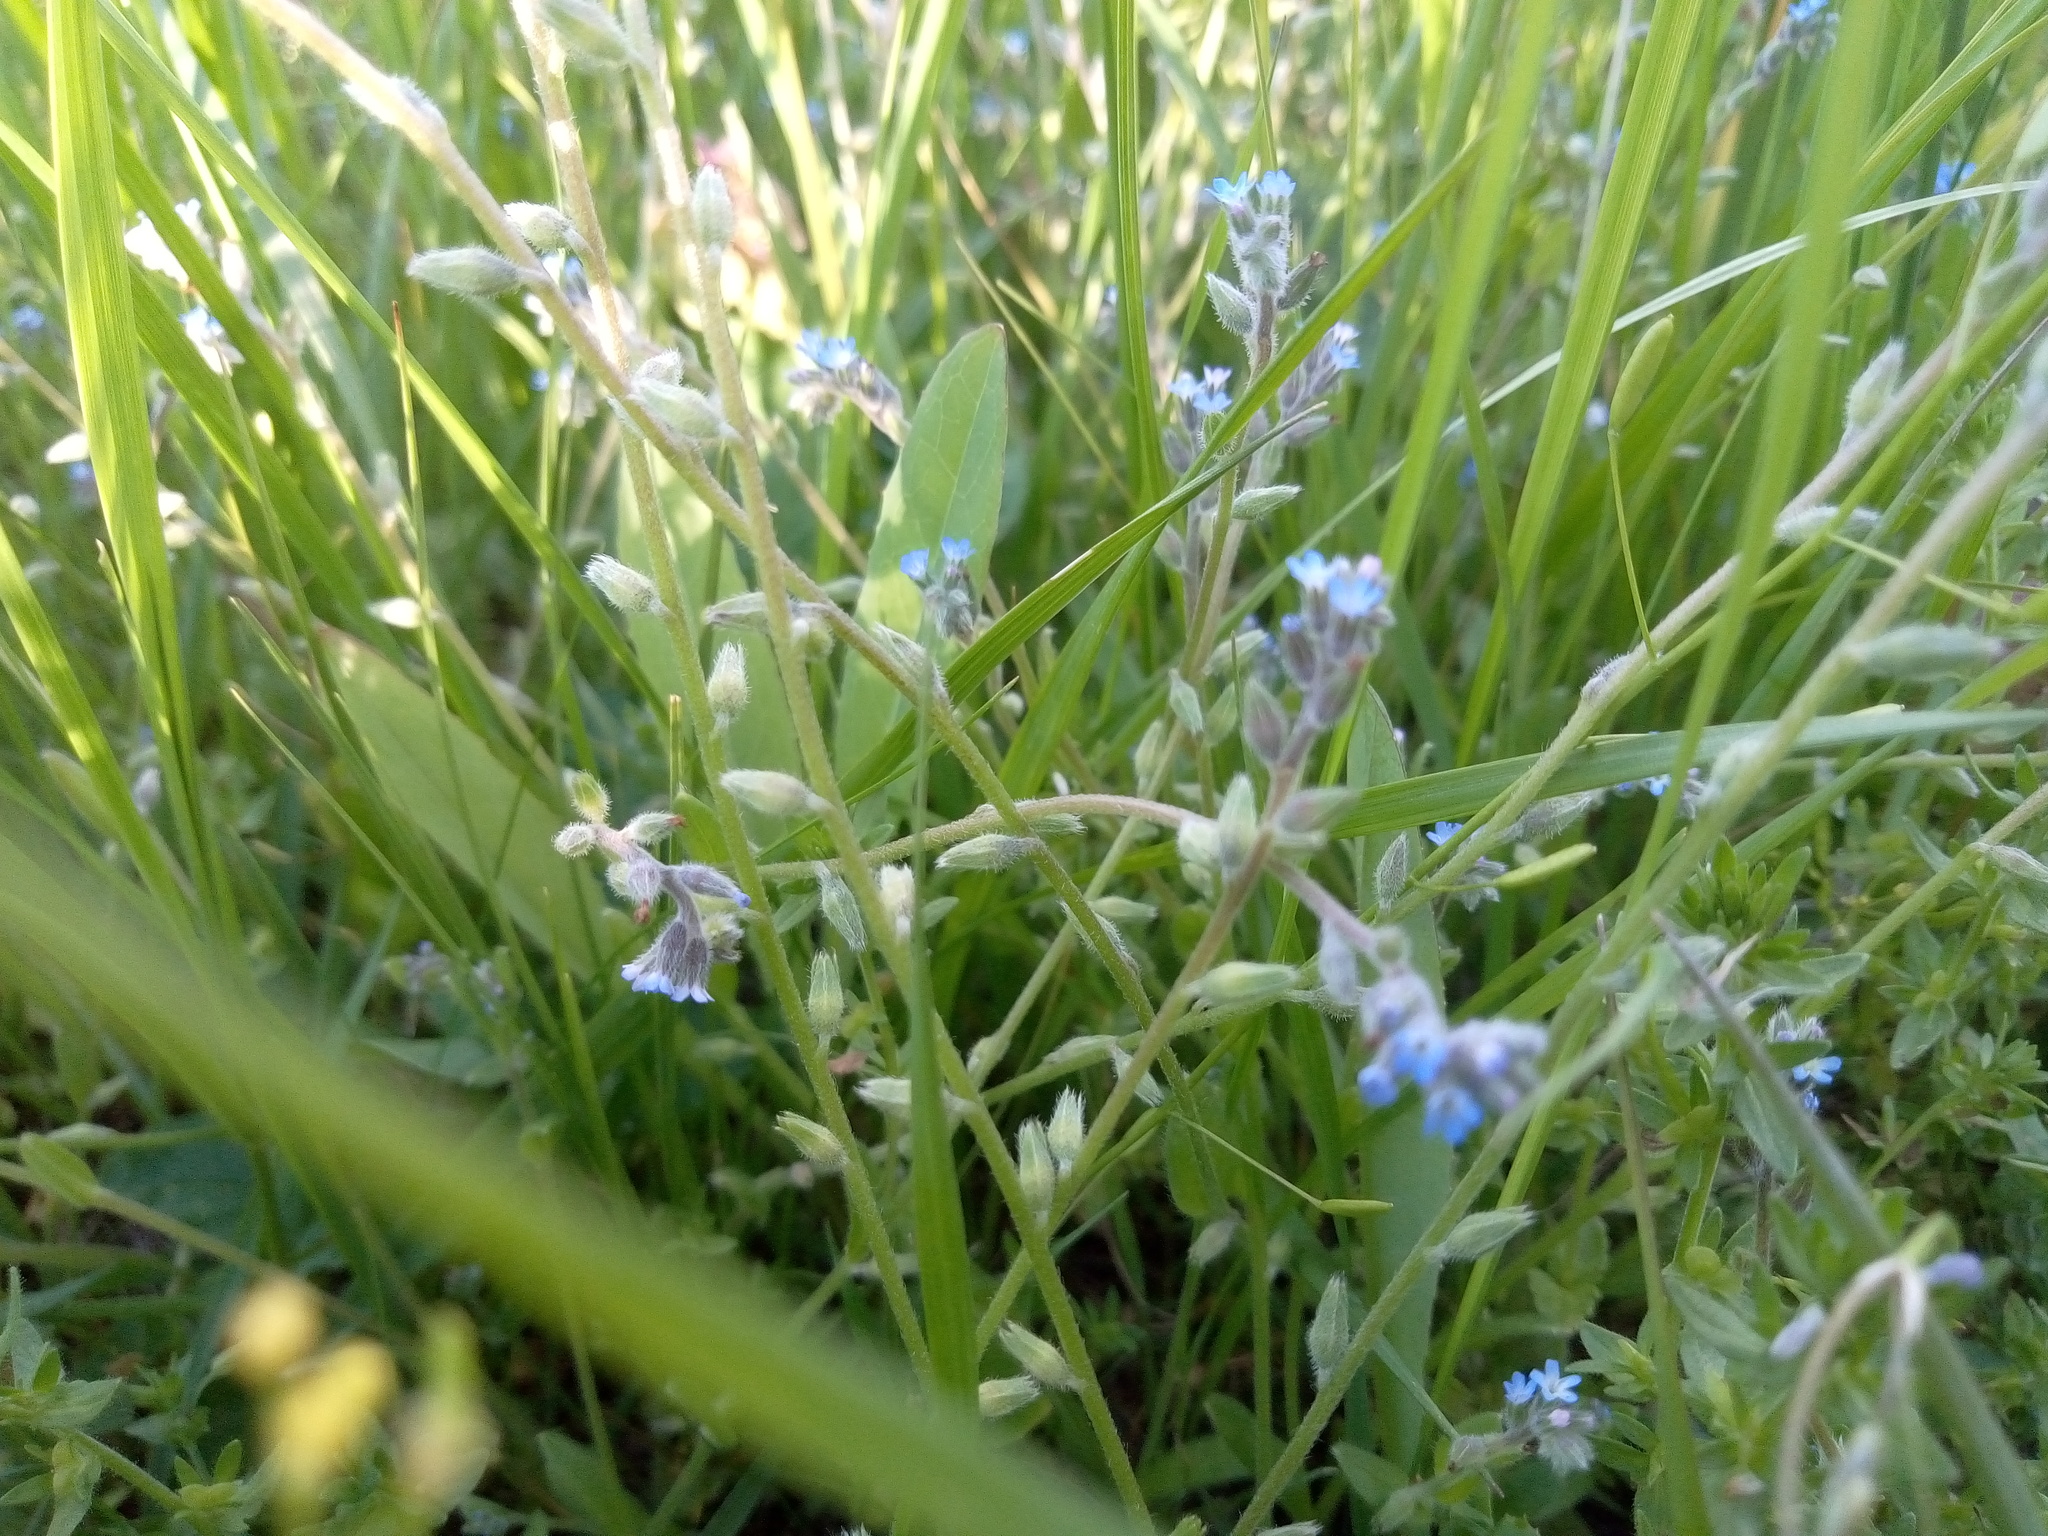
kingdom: Plantae
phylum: Tracheophyta
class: Magnoliopsida
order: Boraginales
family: Boraginaceae
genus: Myosotis
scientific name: Myosotis stricta
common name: Strict forget-me-not
